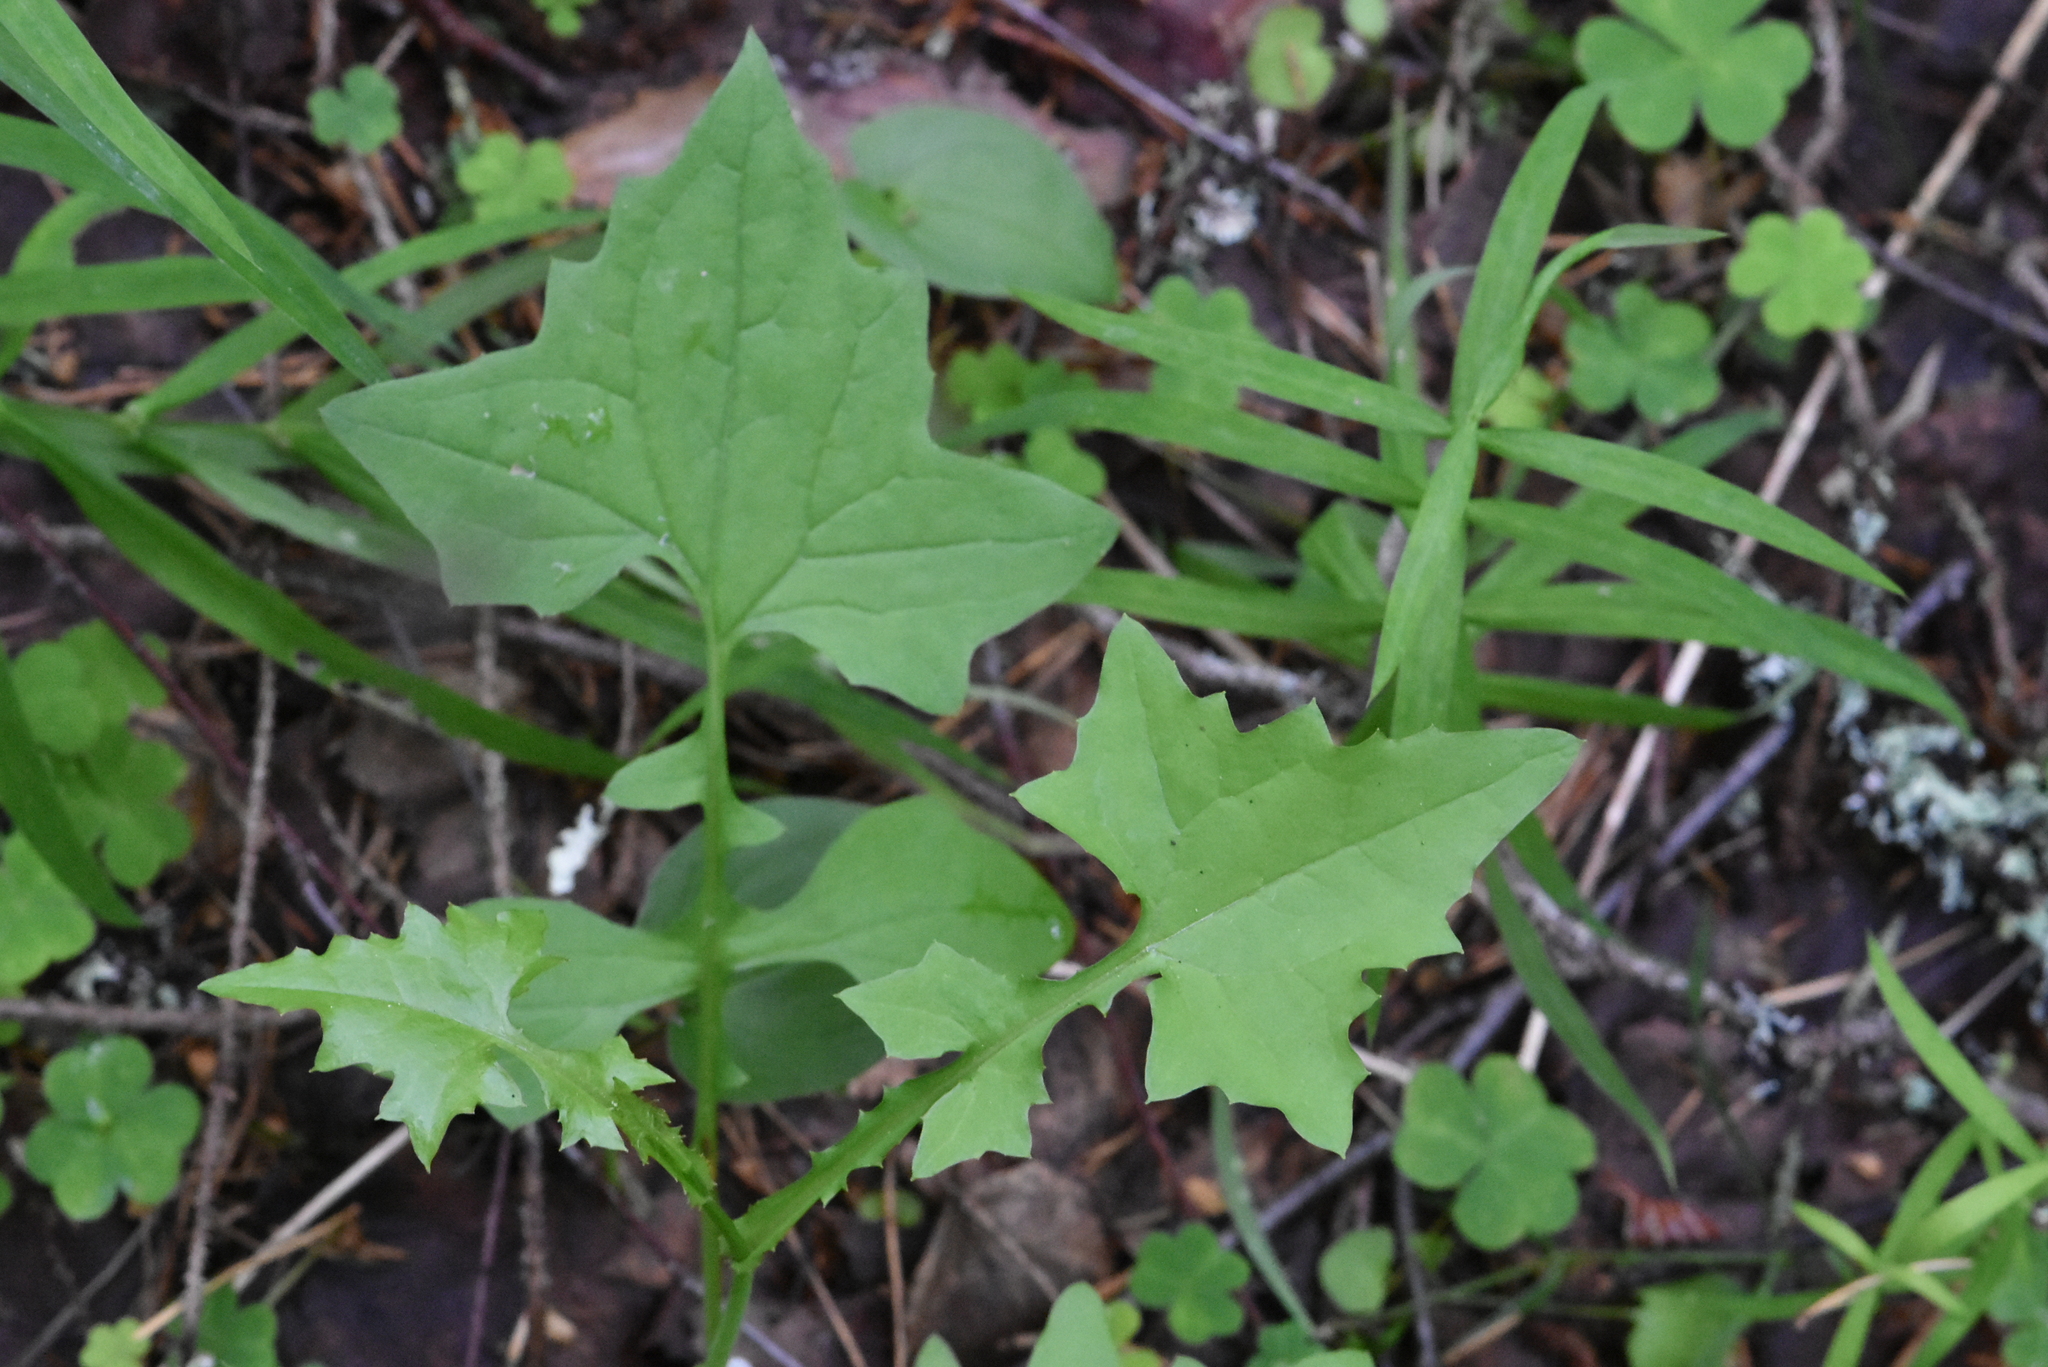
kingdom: Plantae
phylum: Tracheophyta
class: Magnoliopsida
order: Asterales
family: Asteraceae
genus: Mycelis
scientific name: Mycelis muralis
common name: Wall lettuce
